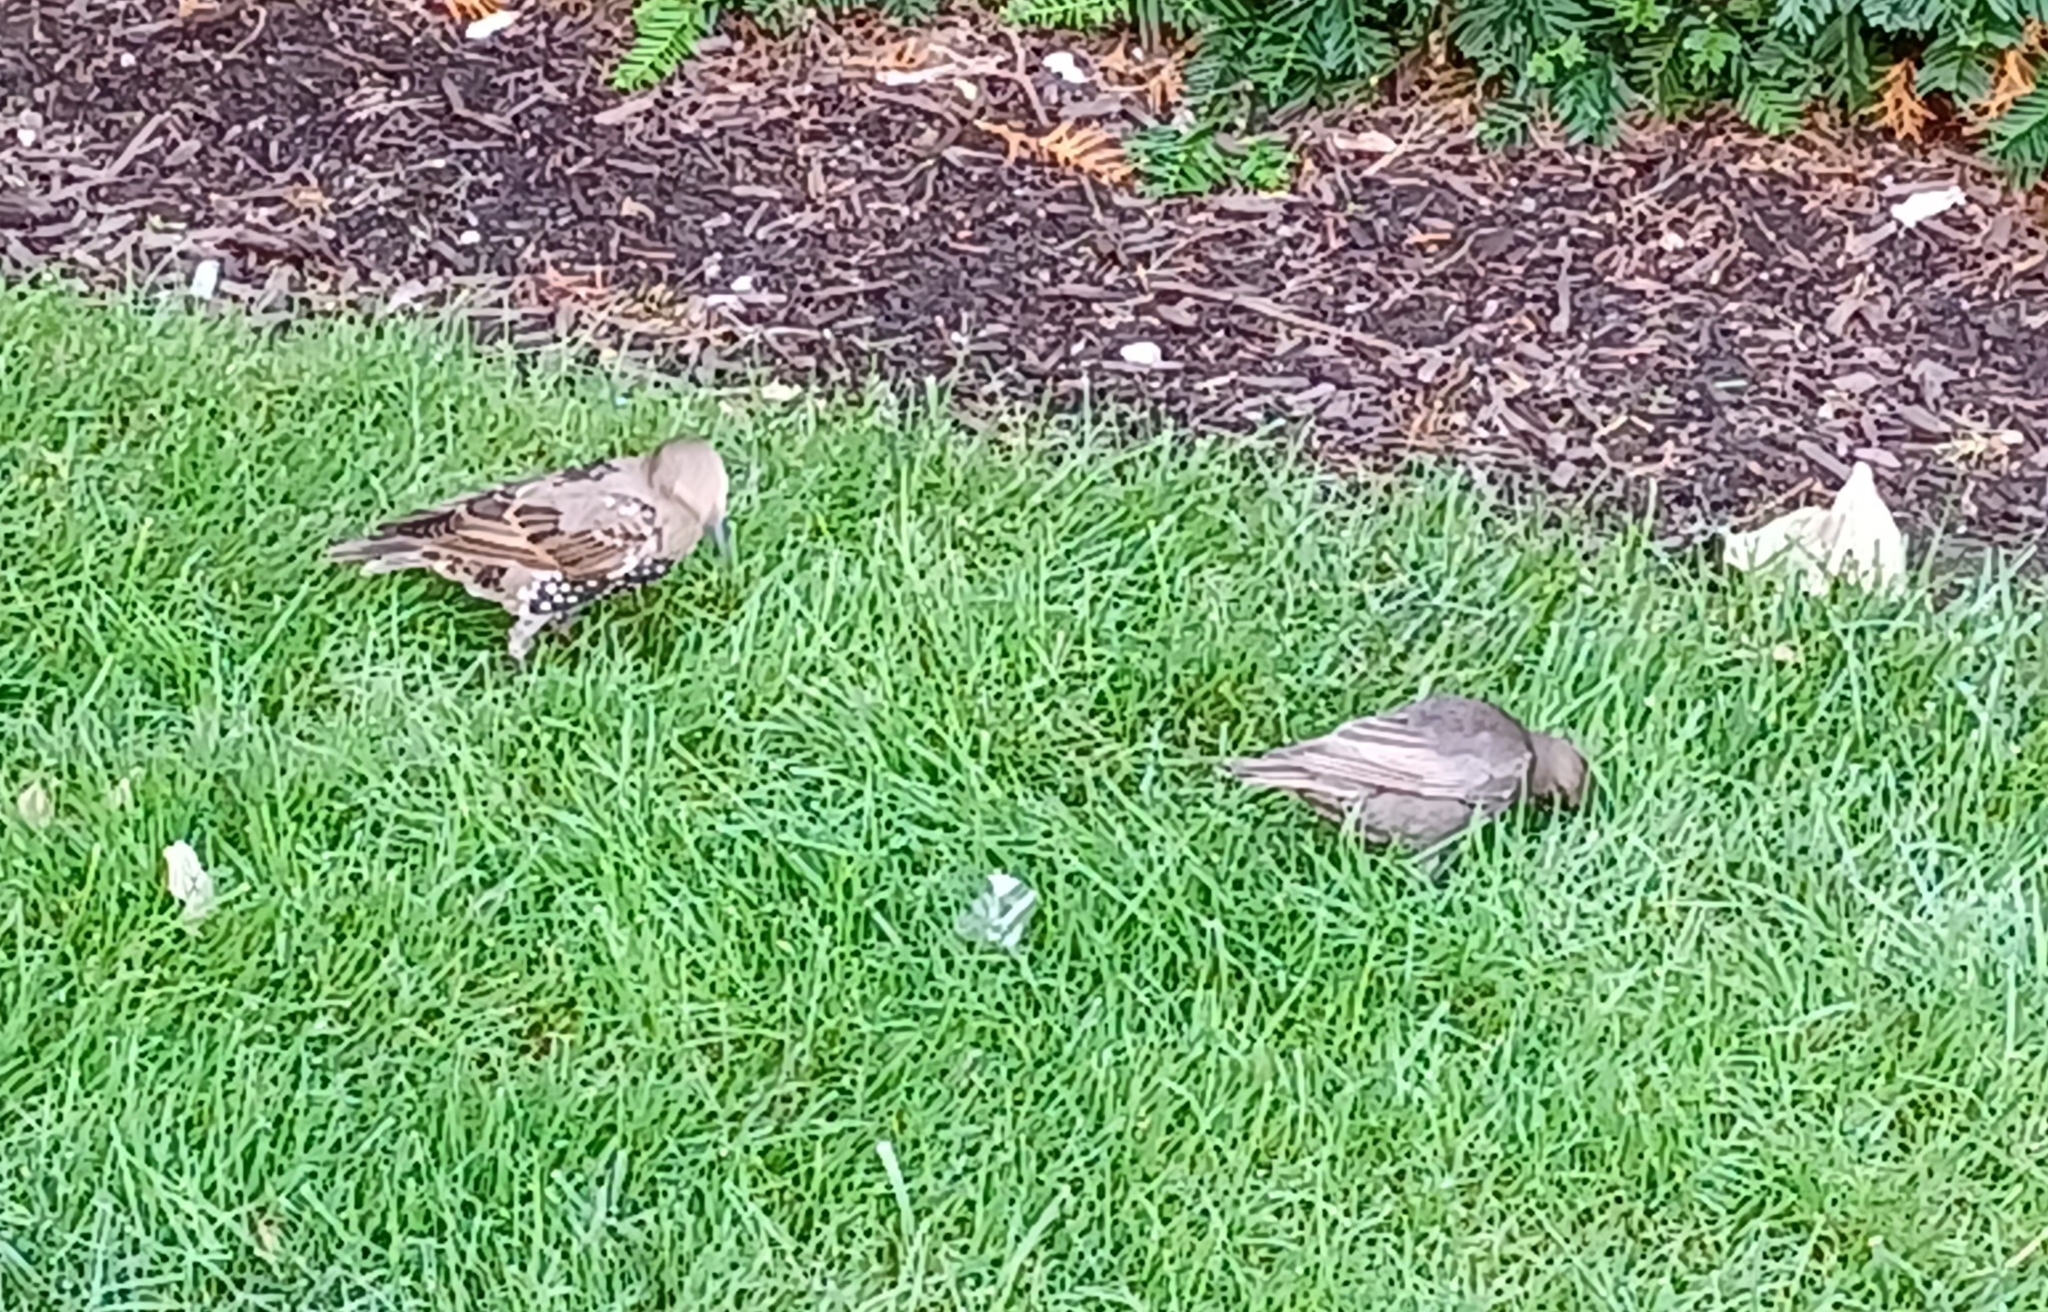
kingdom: Animalia
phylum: Chordata
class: Aves
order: Passeriformes
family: Sturnidae
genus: Sturnus
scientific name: Sturnus vulgaris
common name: Common starling
